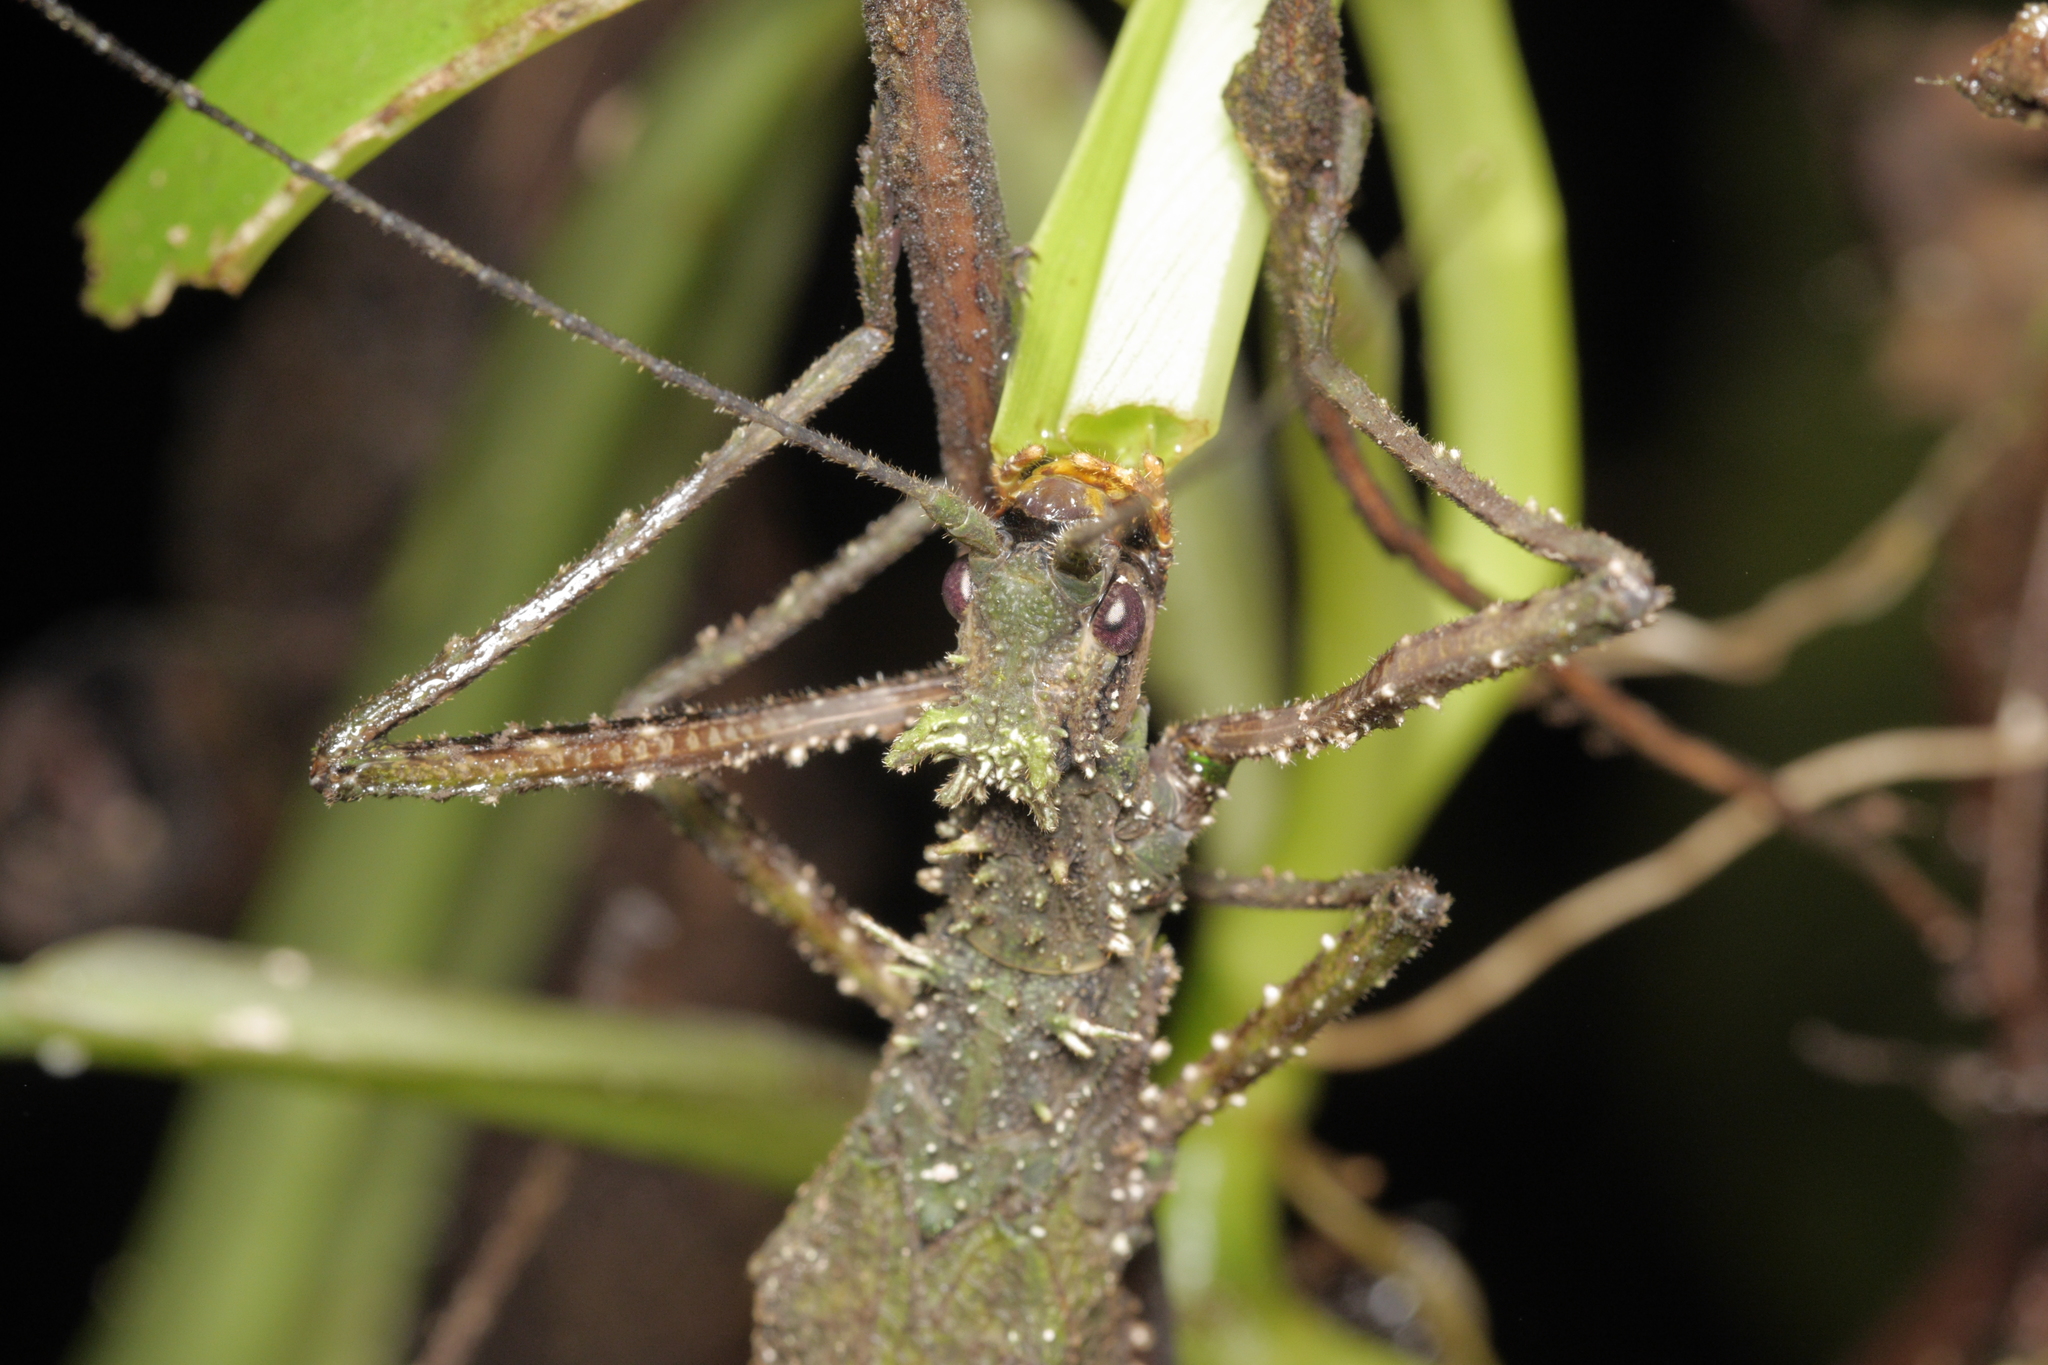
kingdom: Animalia
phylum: Arthropoda
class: Insecta
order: Phasmida
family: Pseudophasmatidae
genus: Xylospinodes
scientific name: Xylospinodes jensjohannseni
